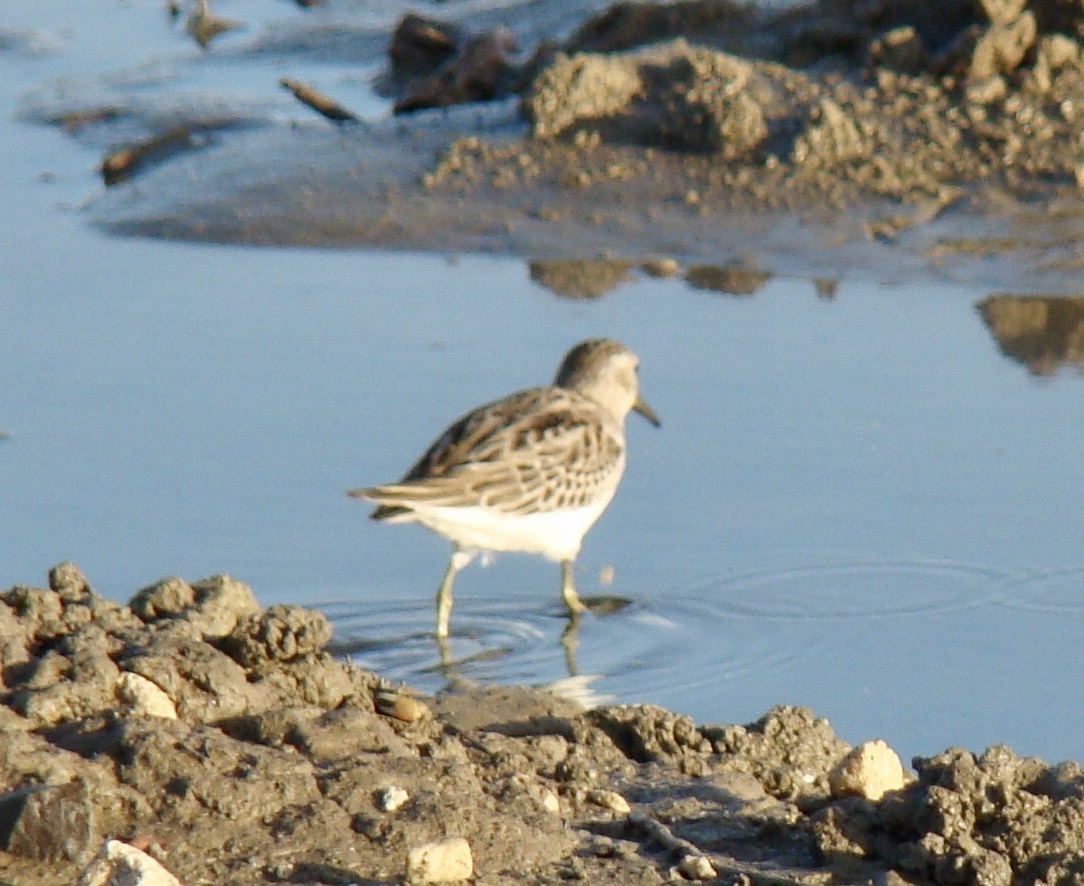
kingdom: Animalia
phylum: Chordata
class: Aves
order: Charadriiformes
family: Scolopacidae
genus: Calidris
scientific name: Calidris minutilla
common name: Least sandpiper
